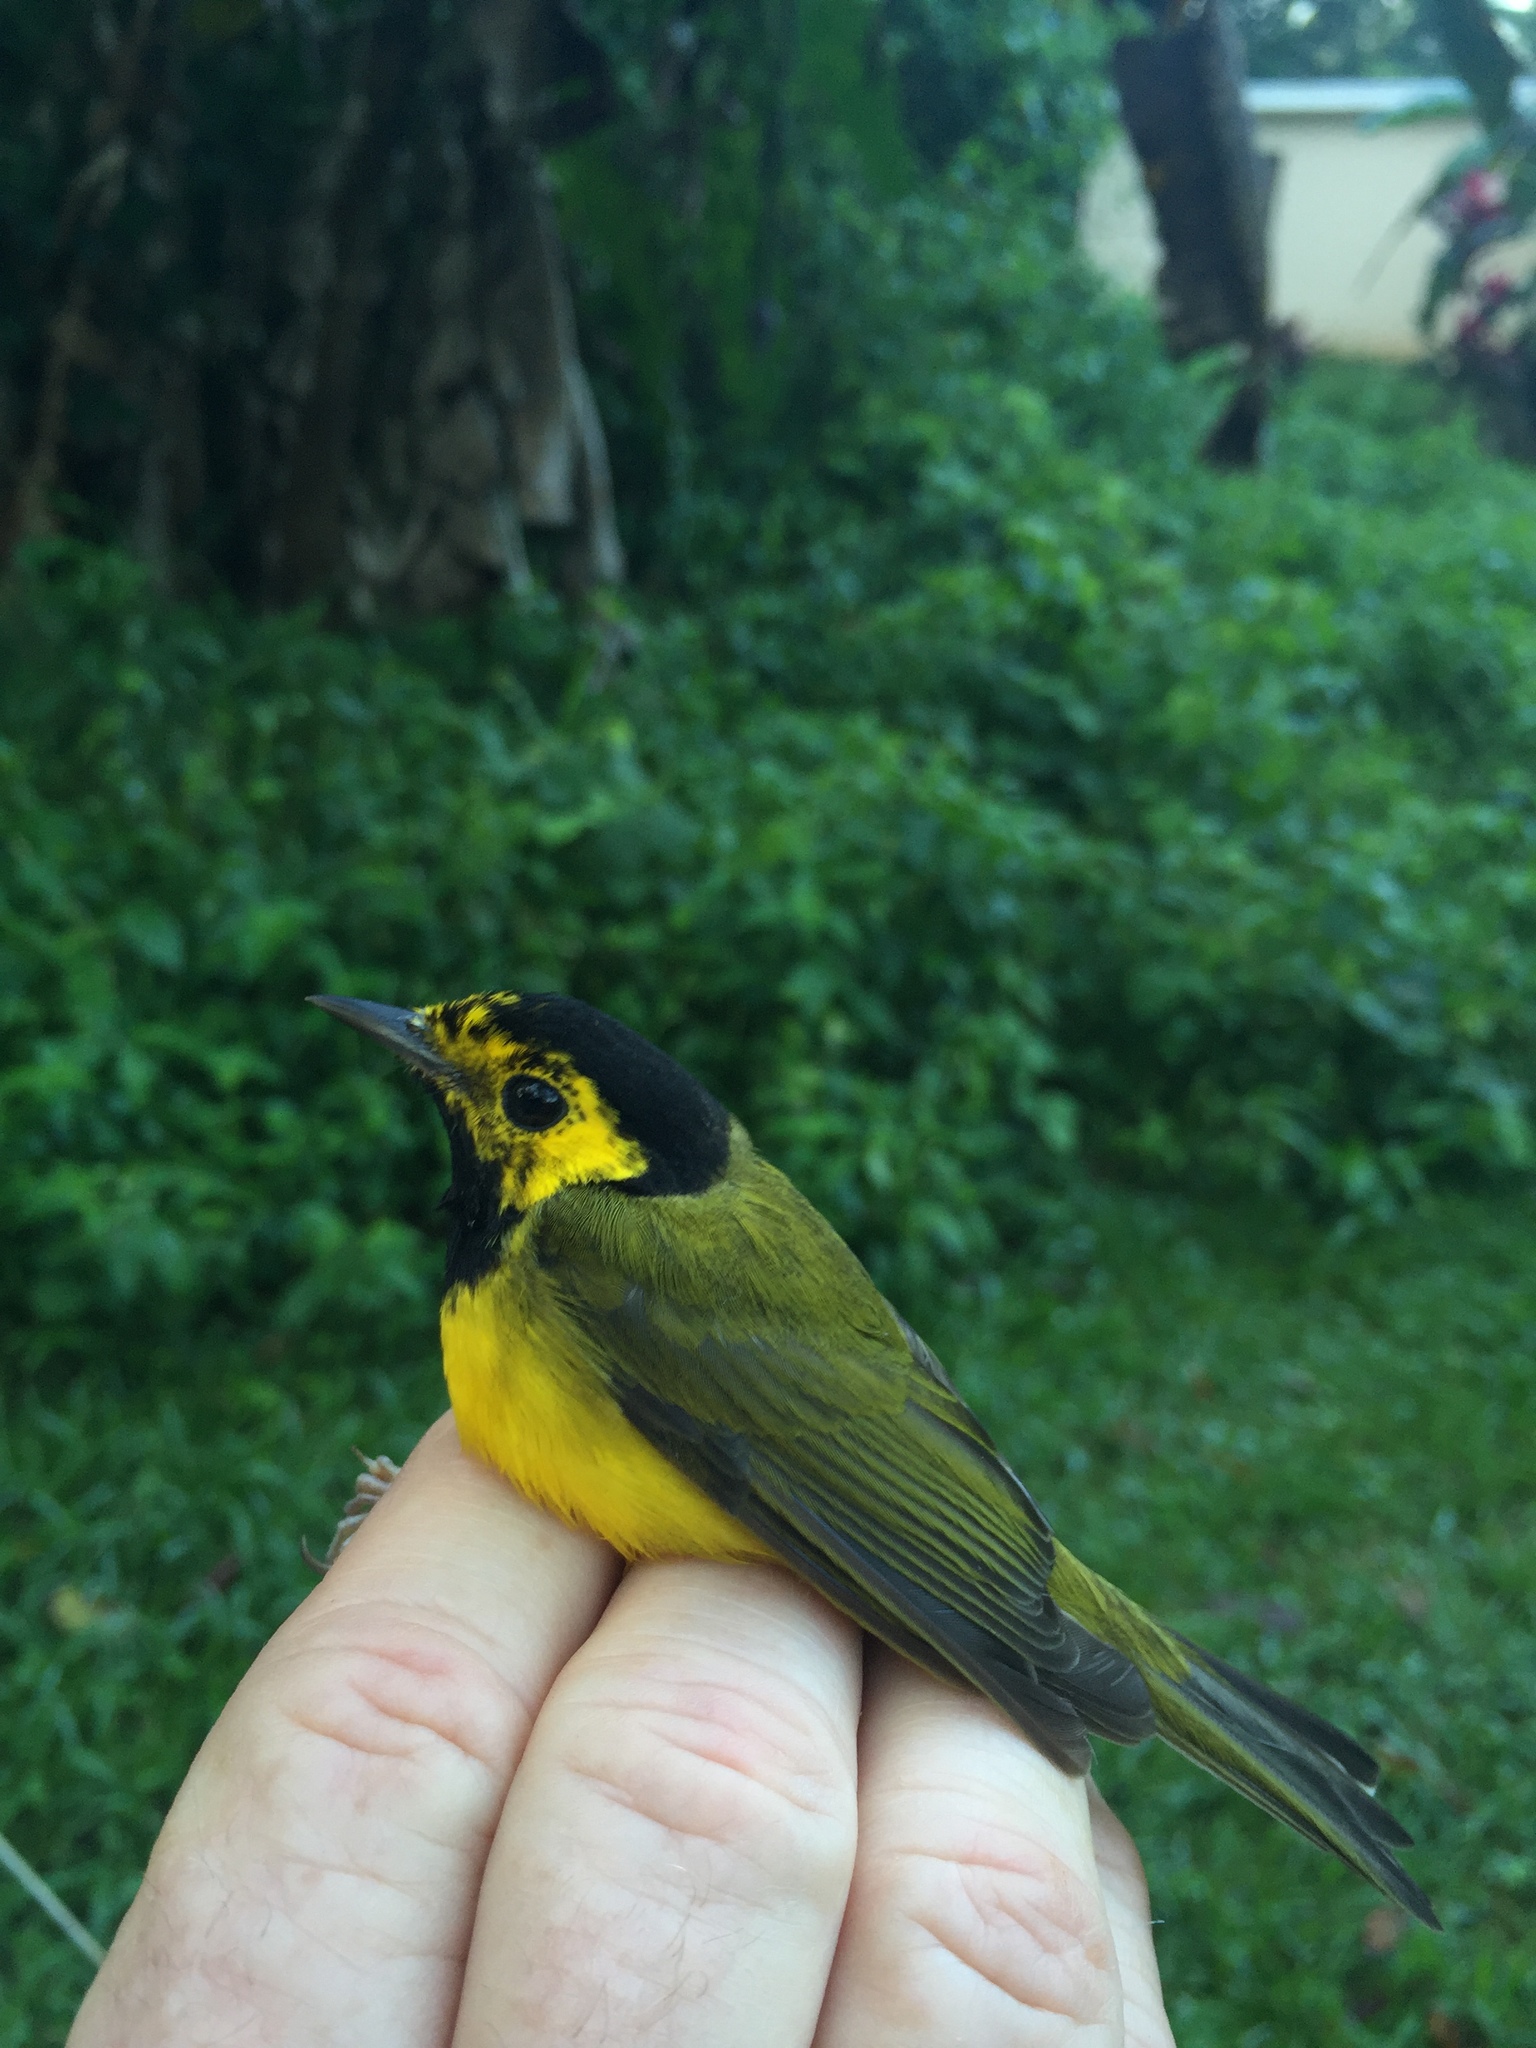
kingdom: Animalia
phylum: Chordata
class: Aves
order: Passeriformes
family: Parulidae
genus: Setophaga
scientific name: Setophaga citrina
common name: Hooded warbler
